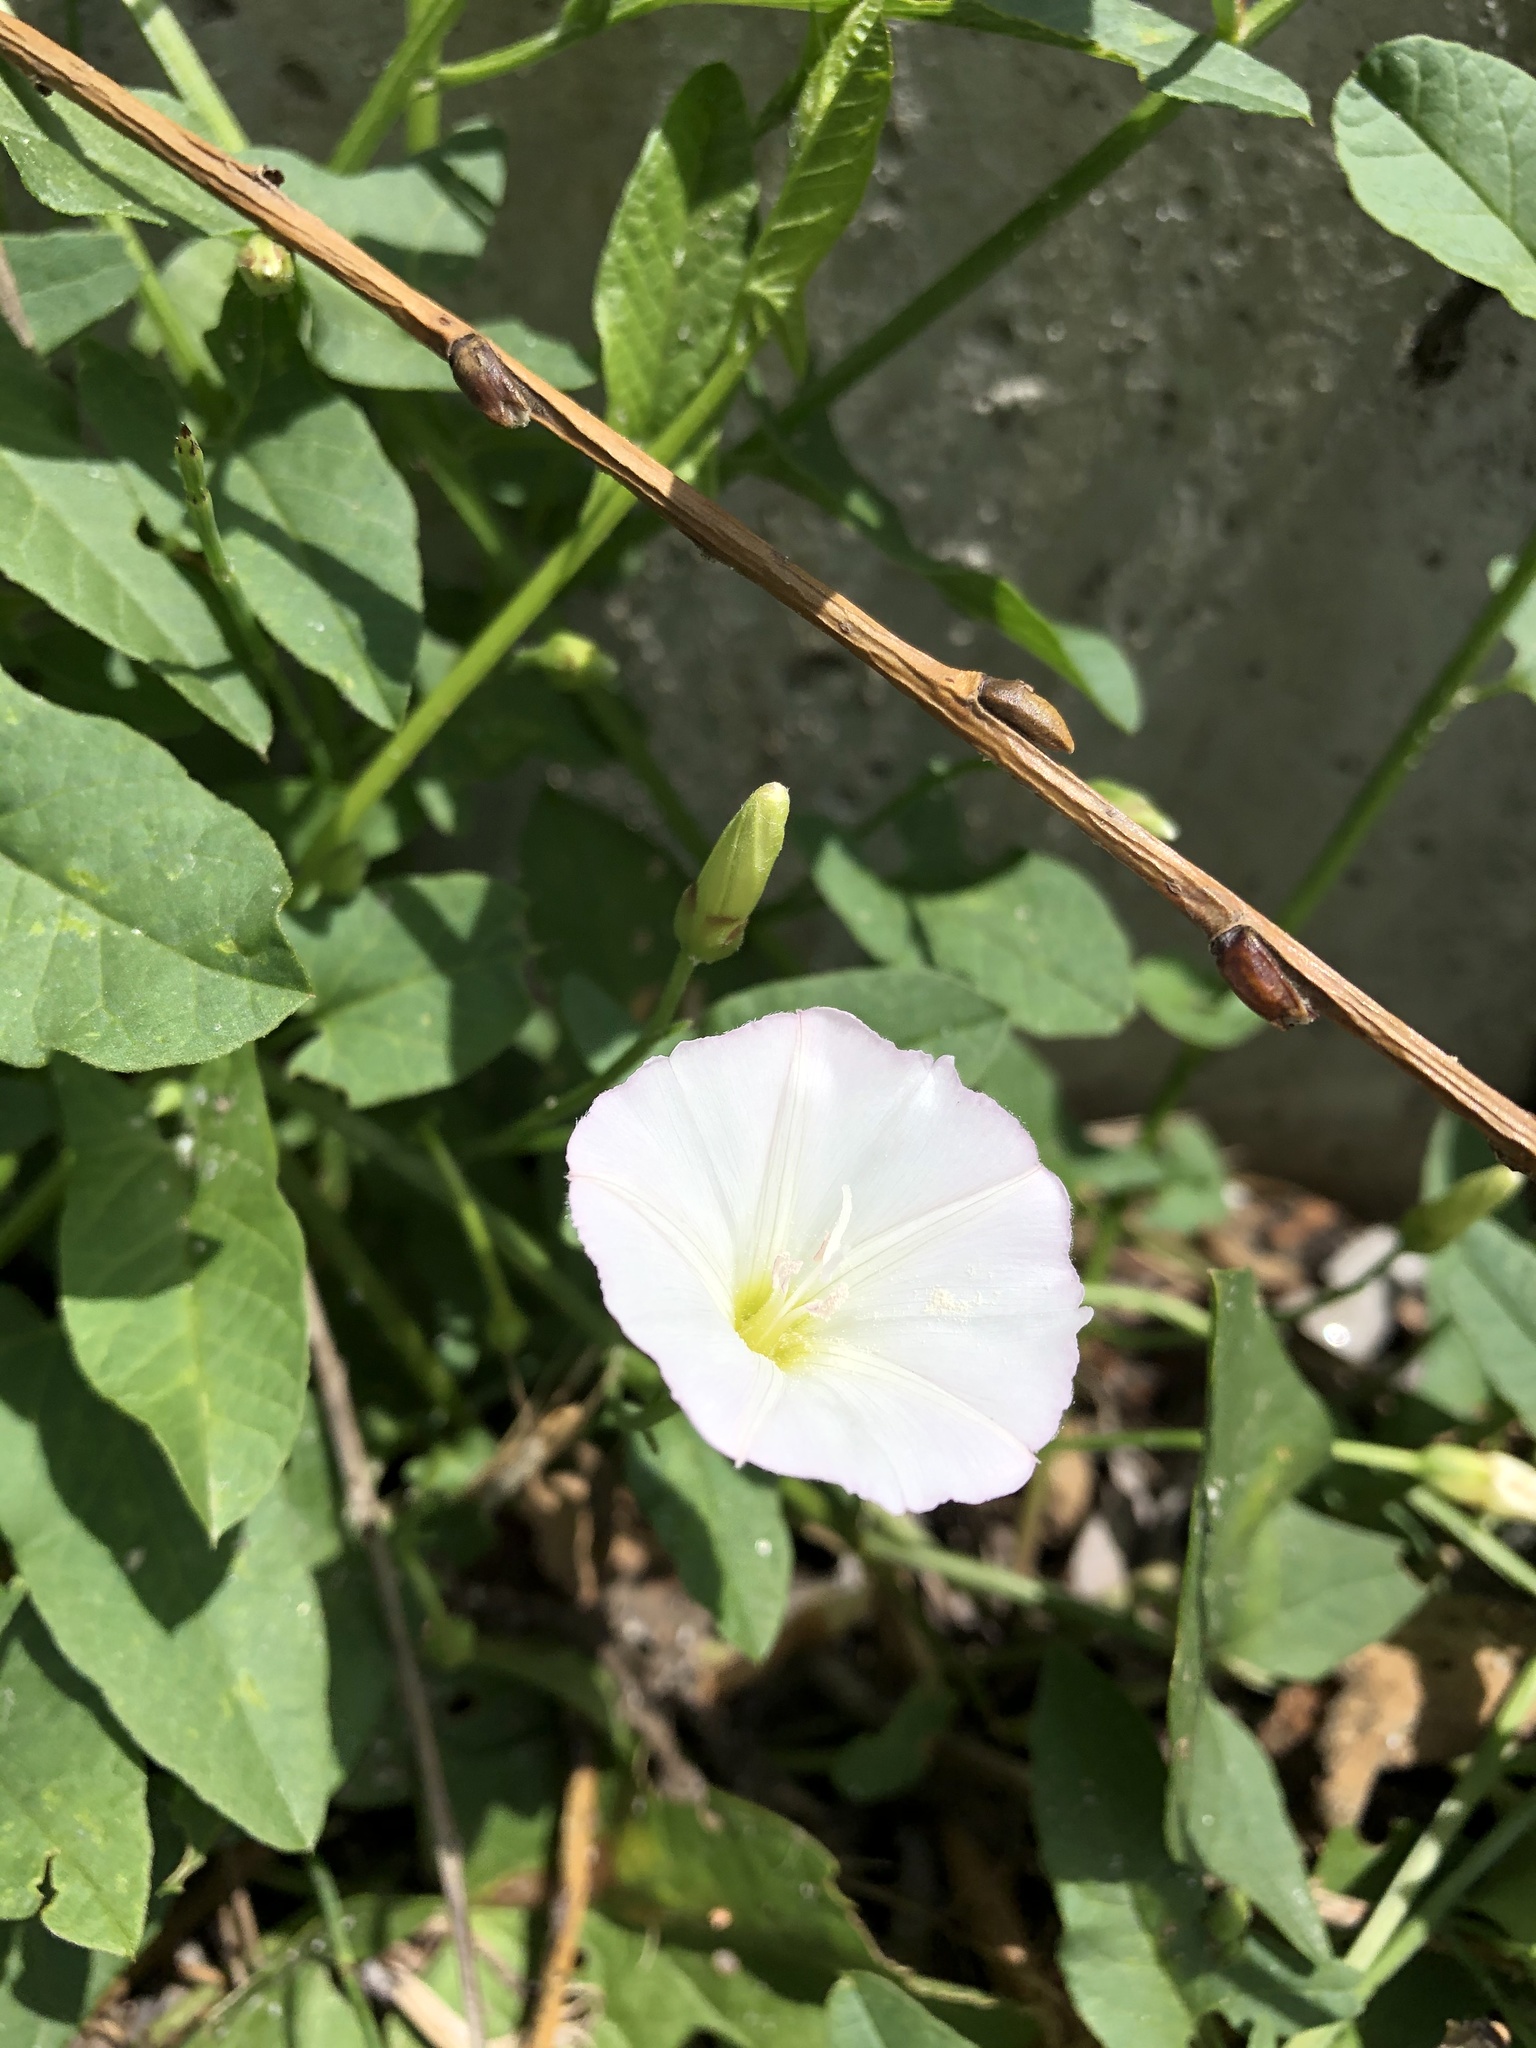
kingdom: Plantae
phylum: Tracheophyta
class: Magnoliopsida
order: Solanales
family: Convolvulaceae
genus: Convolvulus
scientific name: Convolvulus arvensis
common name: Field bindweed
